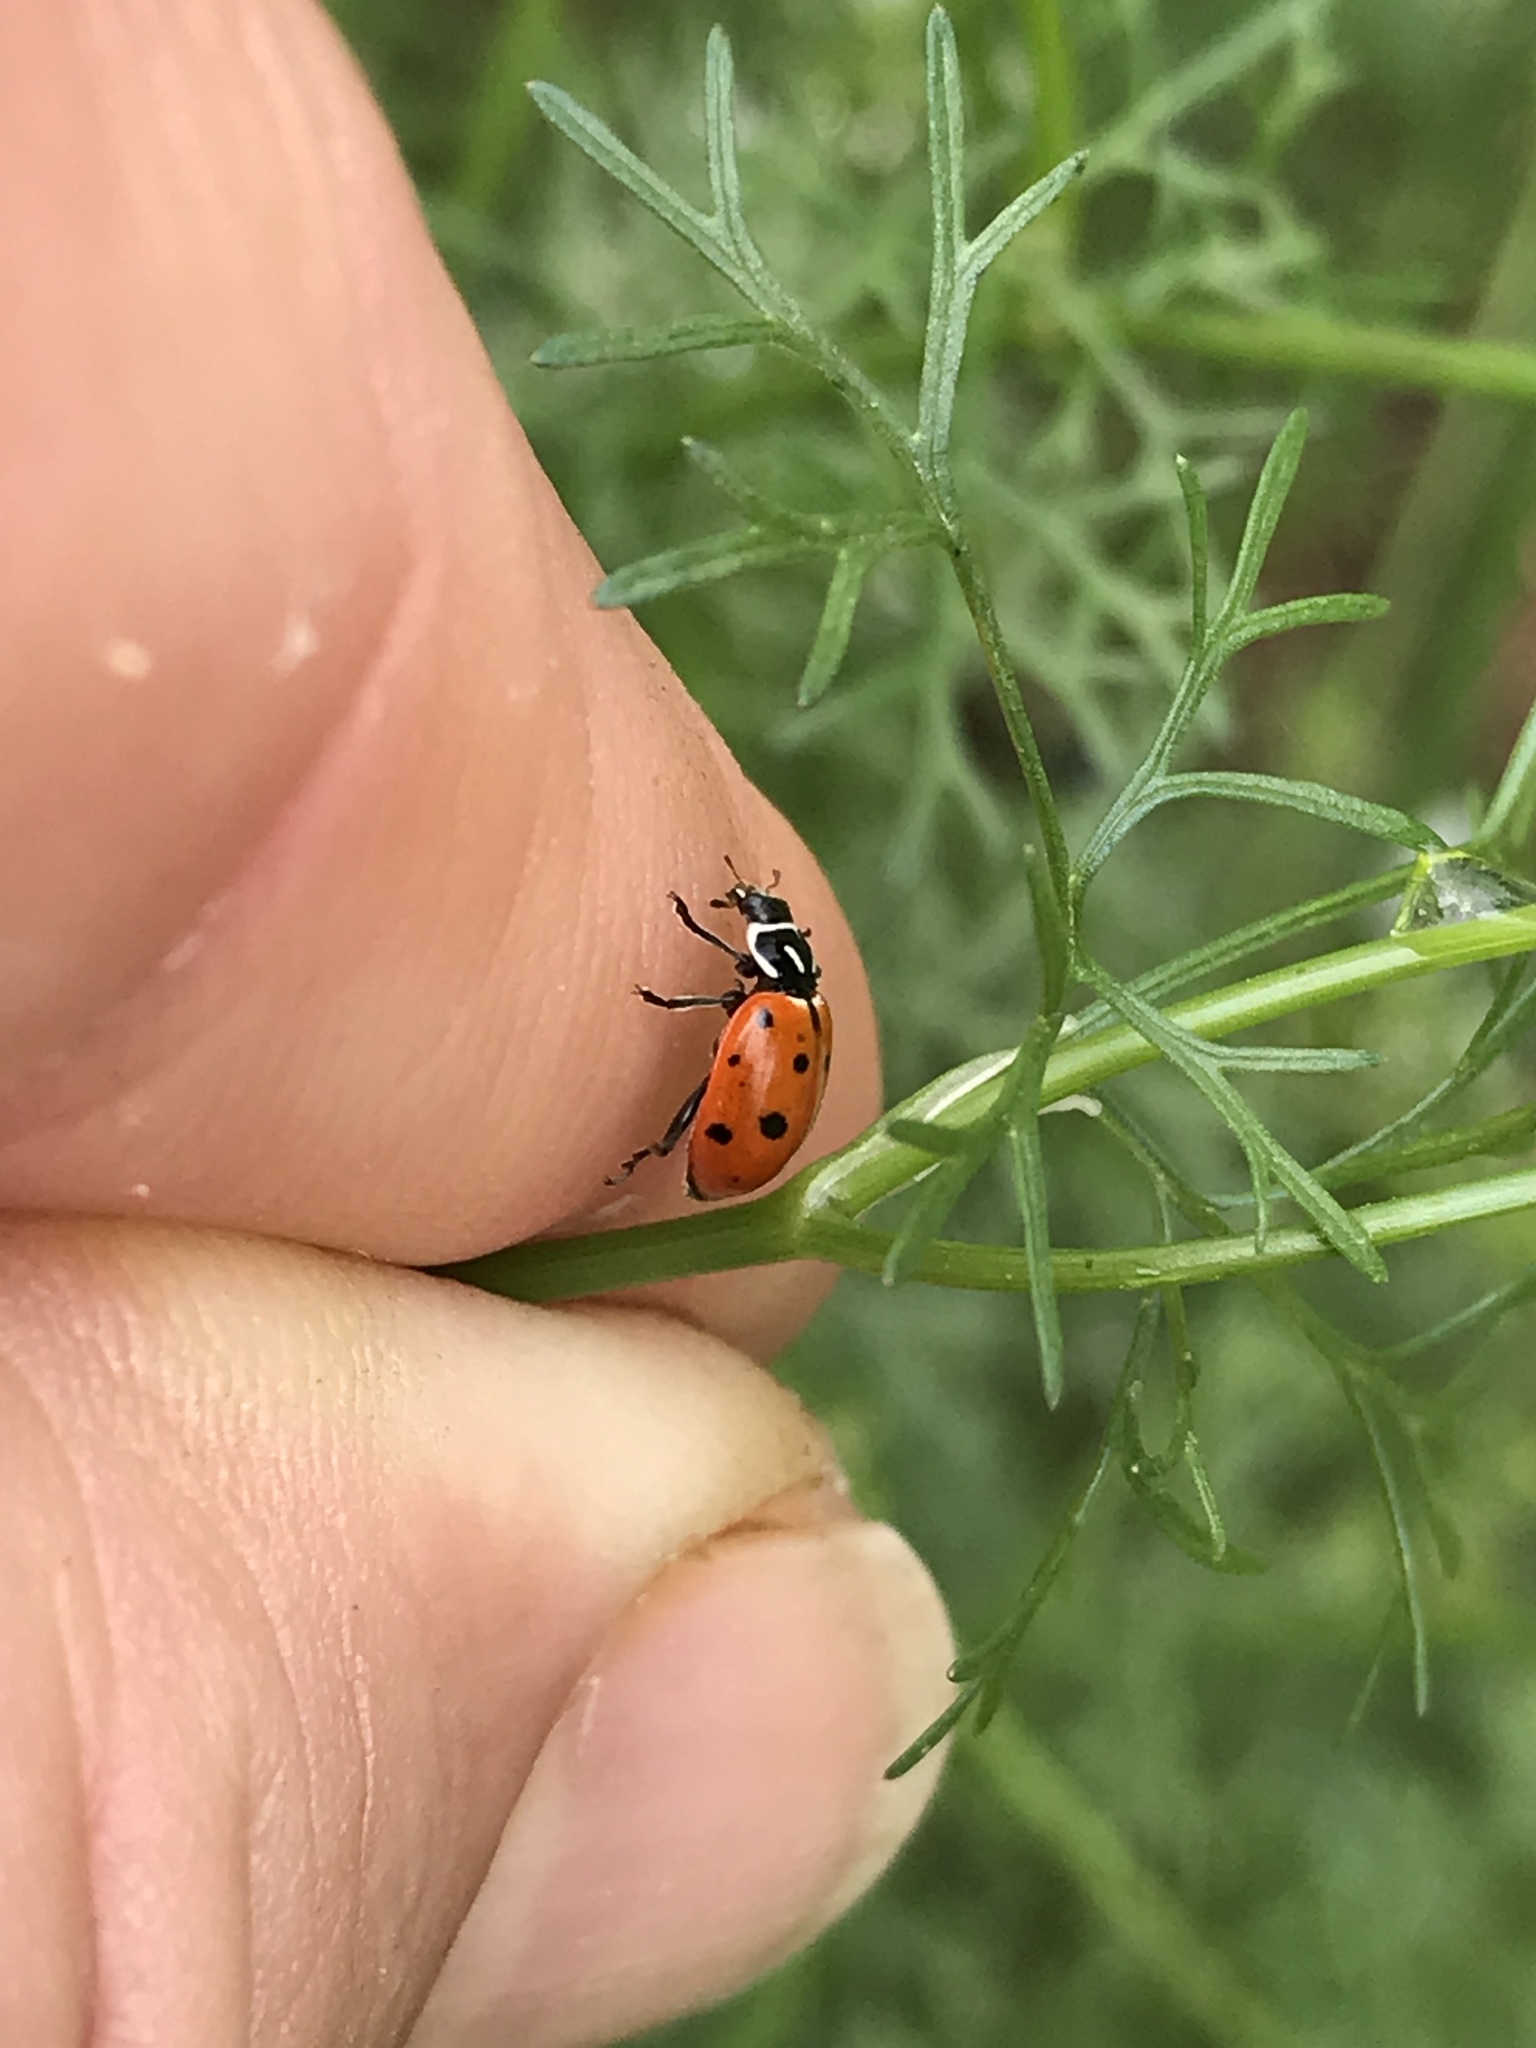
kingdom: Animalia
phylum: Arthropoda
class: Insecta
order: Coleoptera
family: Coccinellidae
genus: Hippodamia
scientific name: Hippodamia convergens
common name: Convergent lady beetle
